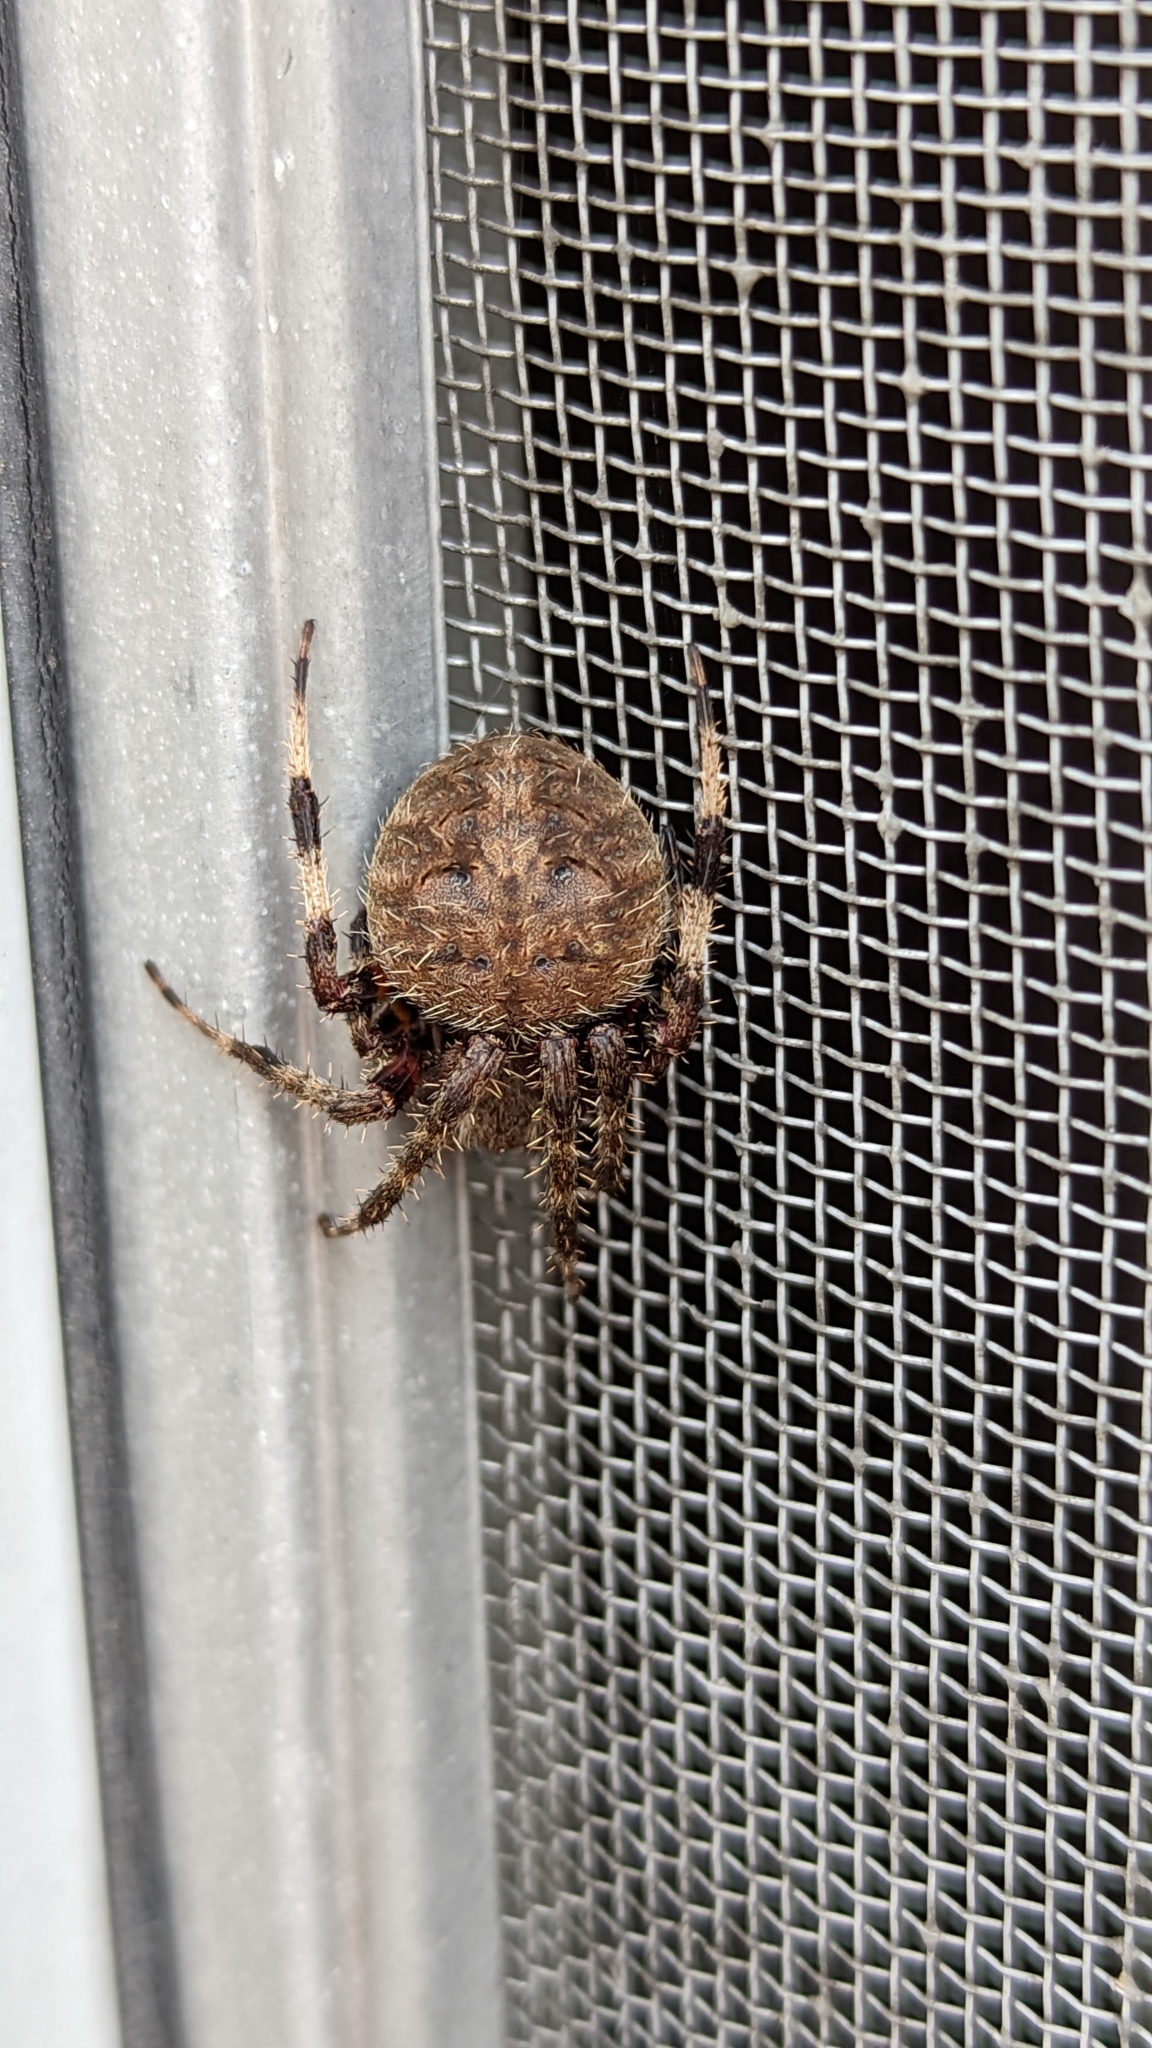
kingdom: Animalia
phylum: Arthropoda
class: Arachnida
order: Araneae
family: Araneidae
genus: Neoscona
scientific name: Neoscona crucifera
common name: Spotted orbweaver
